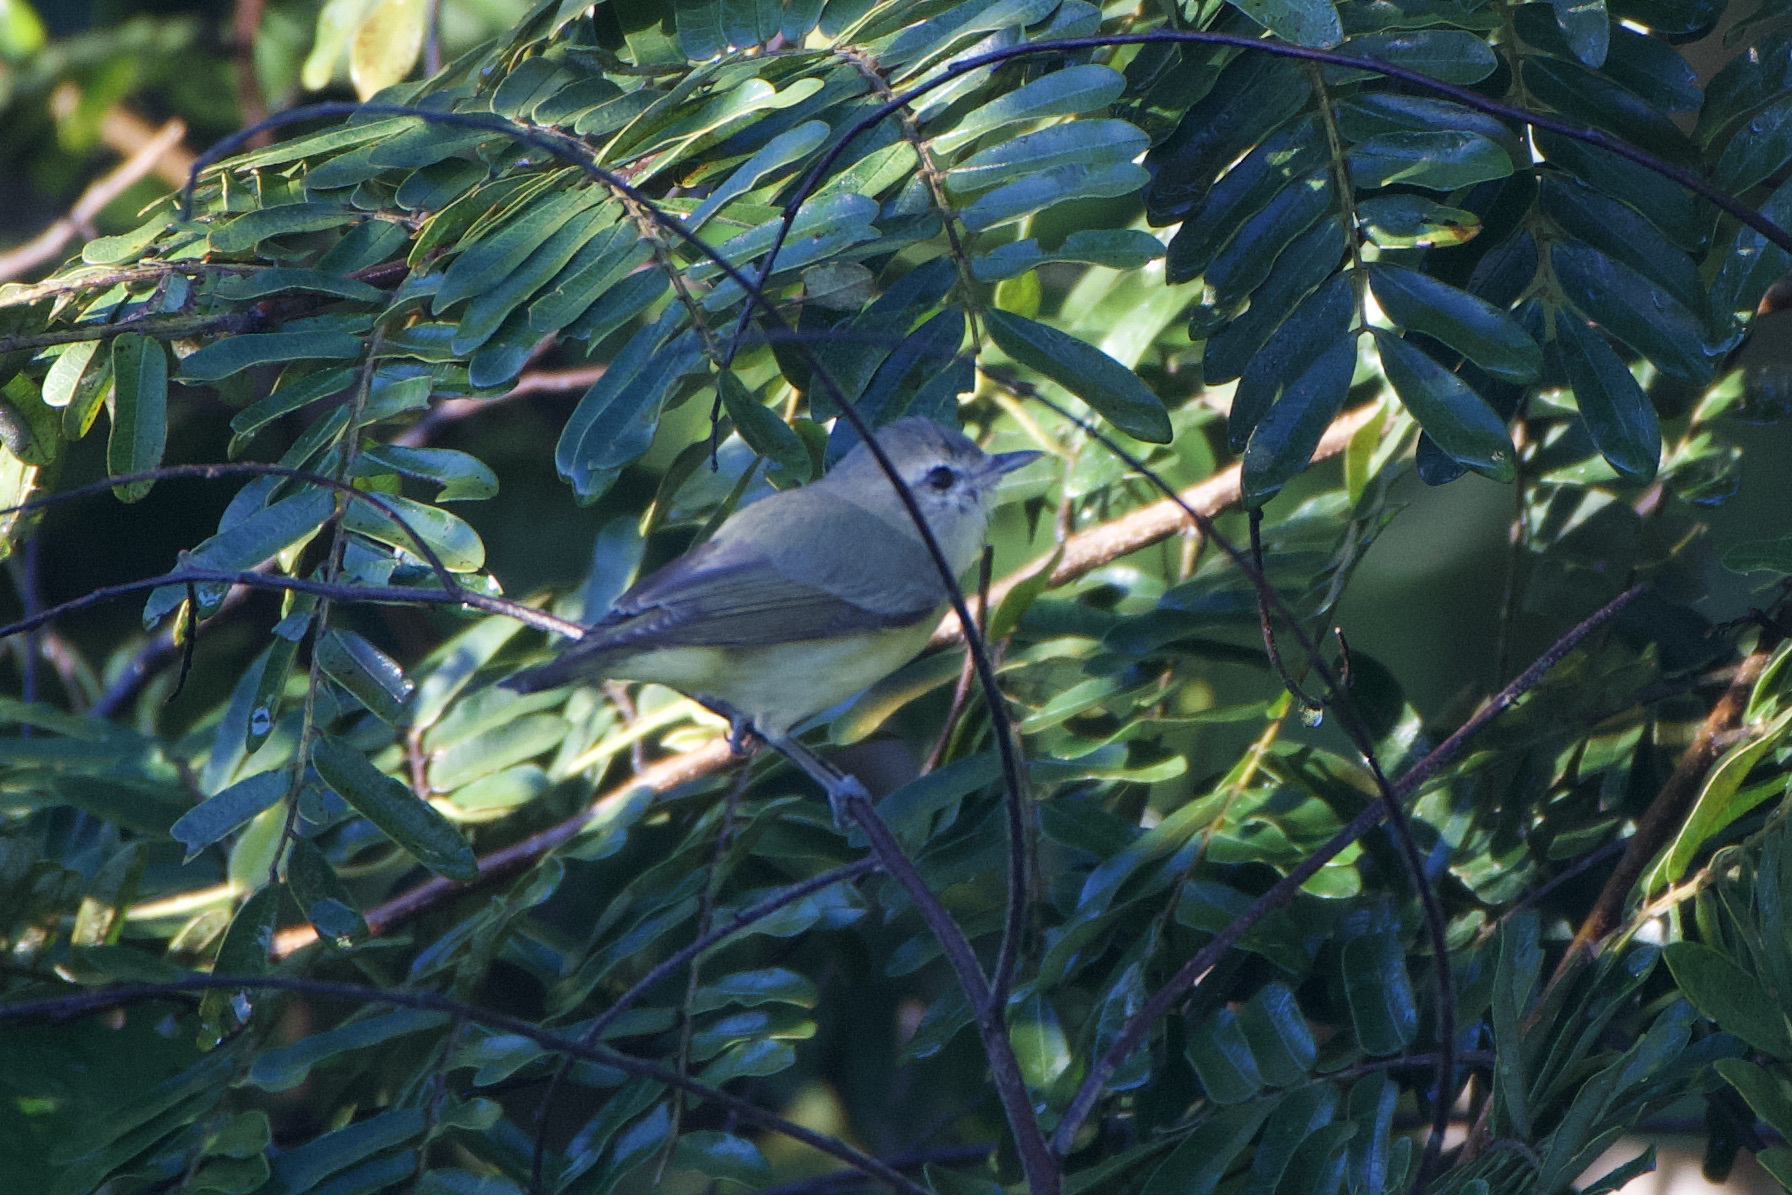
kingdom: Animalia
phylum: Chordata
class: Aves
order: Passeriformes
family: Vireonidae
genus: Vireo
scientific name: Vireo philadelphicus
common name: Philadelphia vireo
